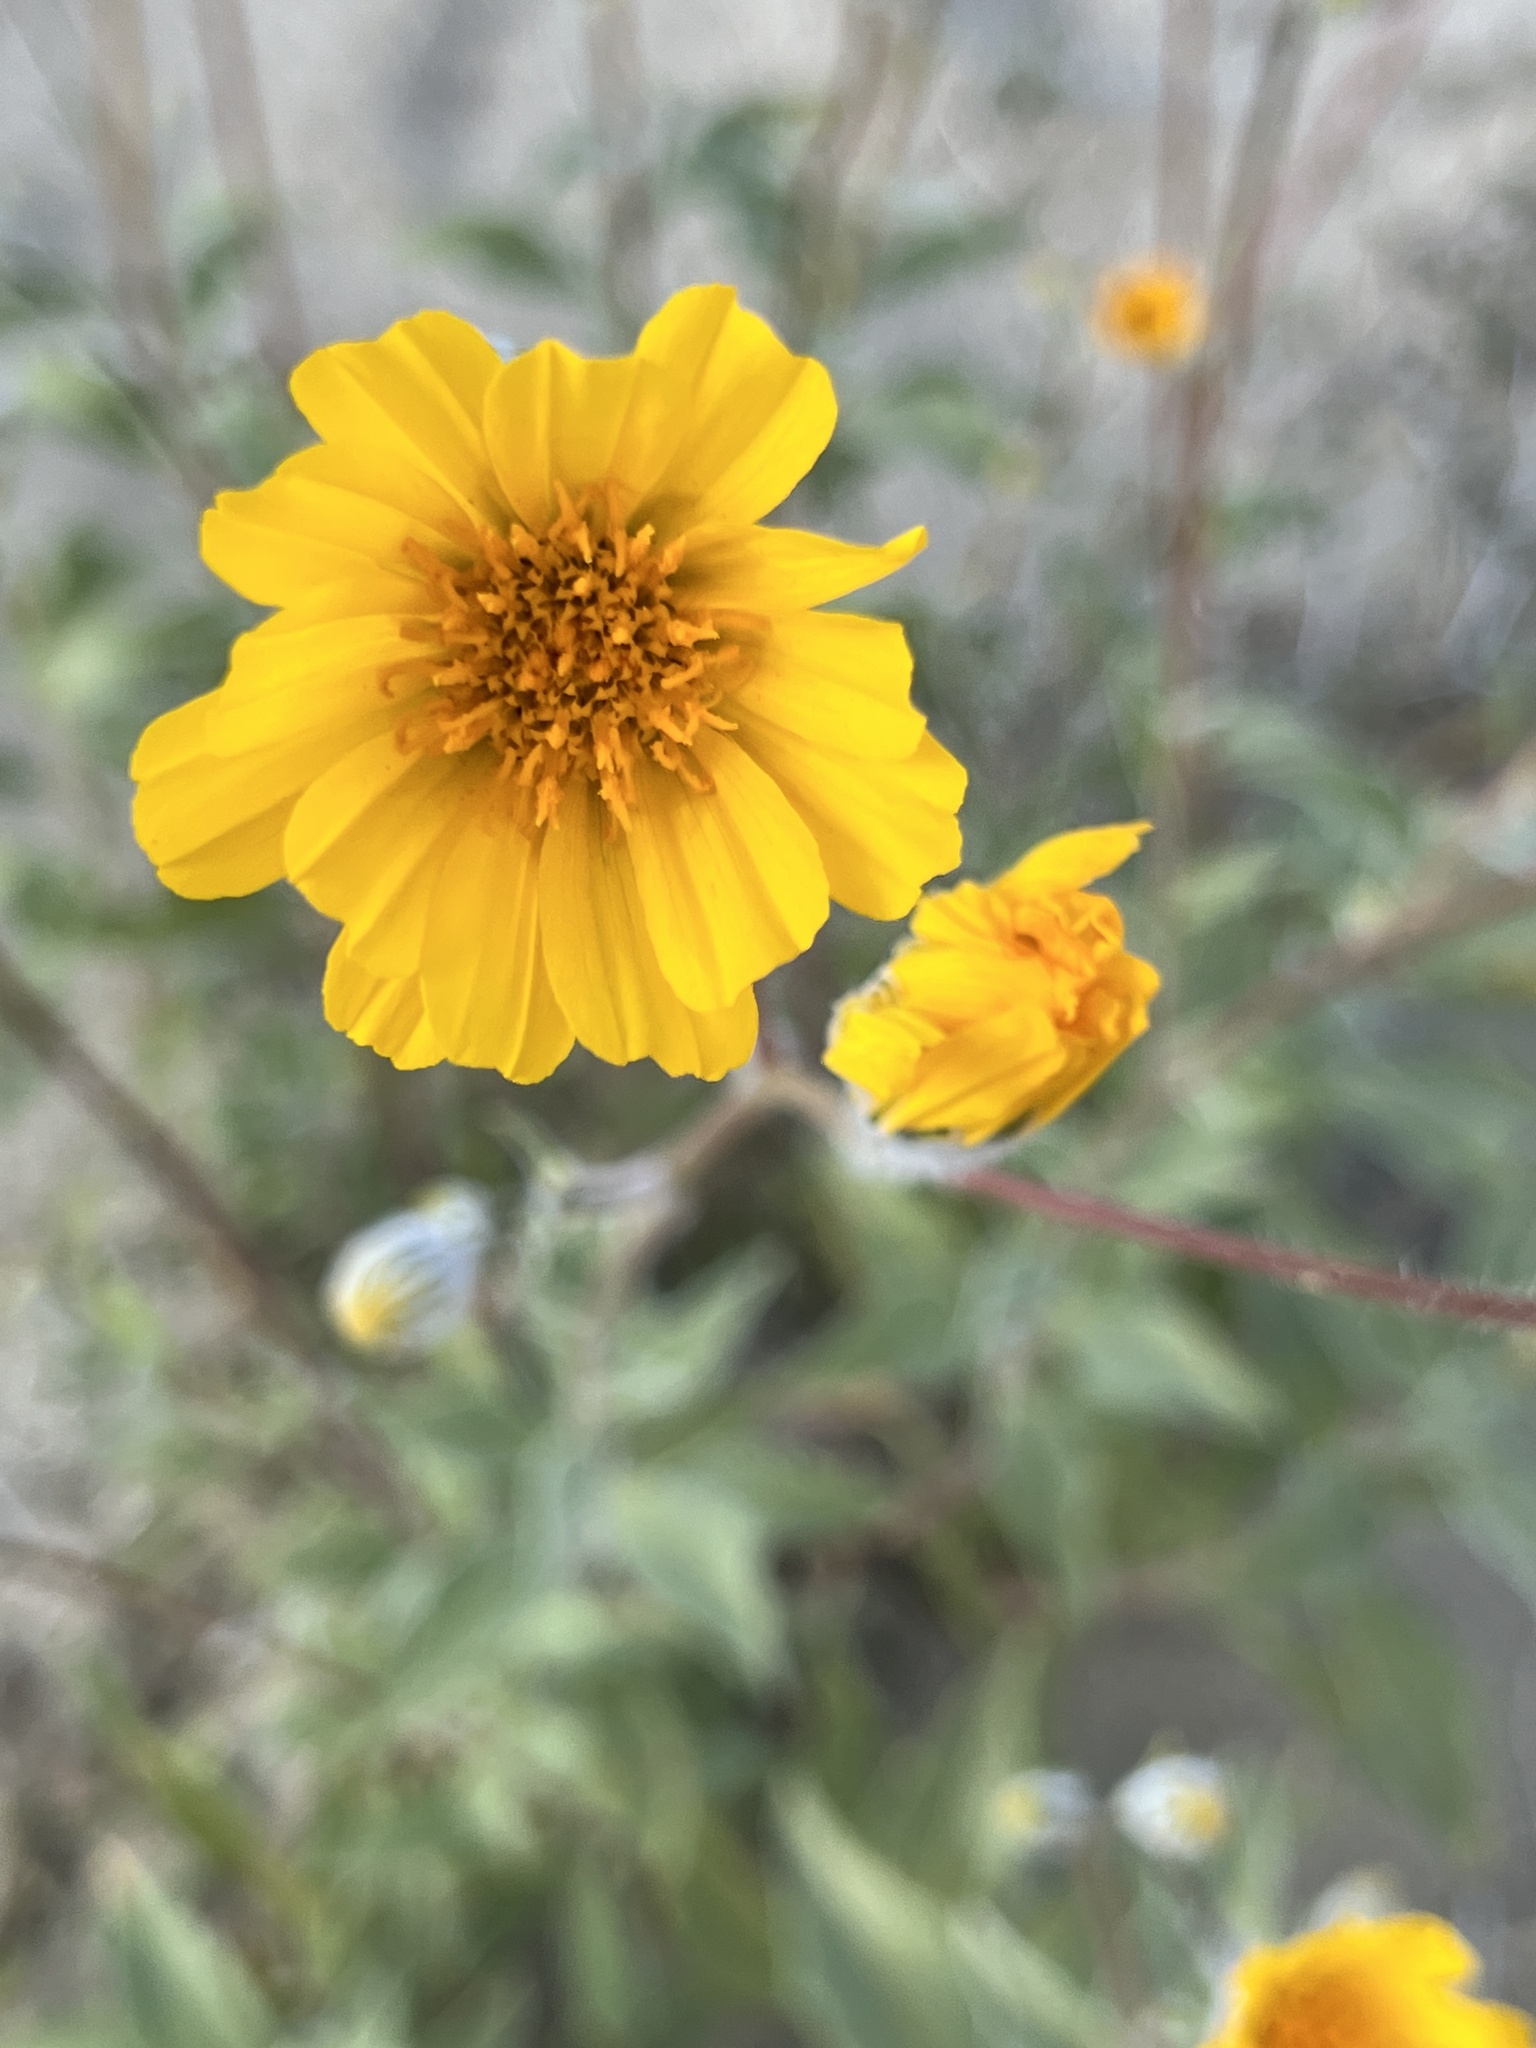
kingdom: Plantae
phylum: Tracheophyta
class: Magnoliopsida
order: Asterales
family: Asteraceae
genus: Geraea
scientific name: Geraea canescens
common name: Desert-gold
